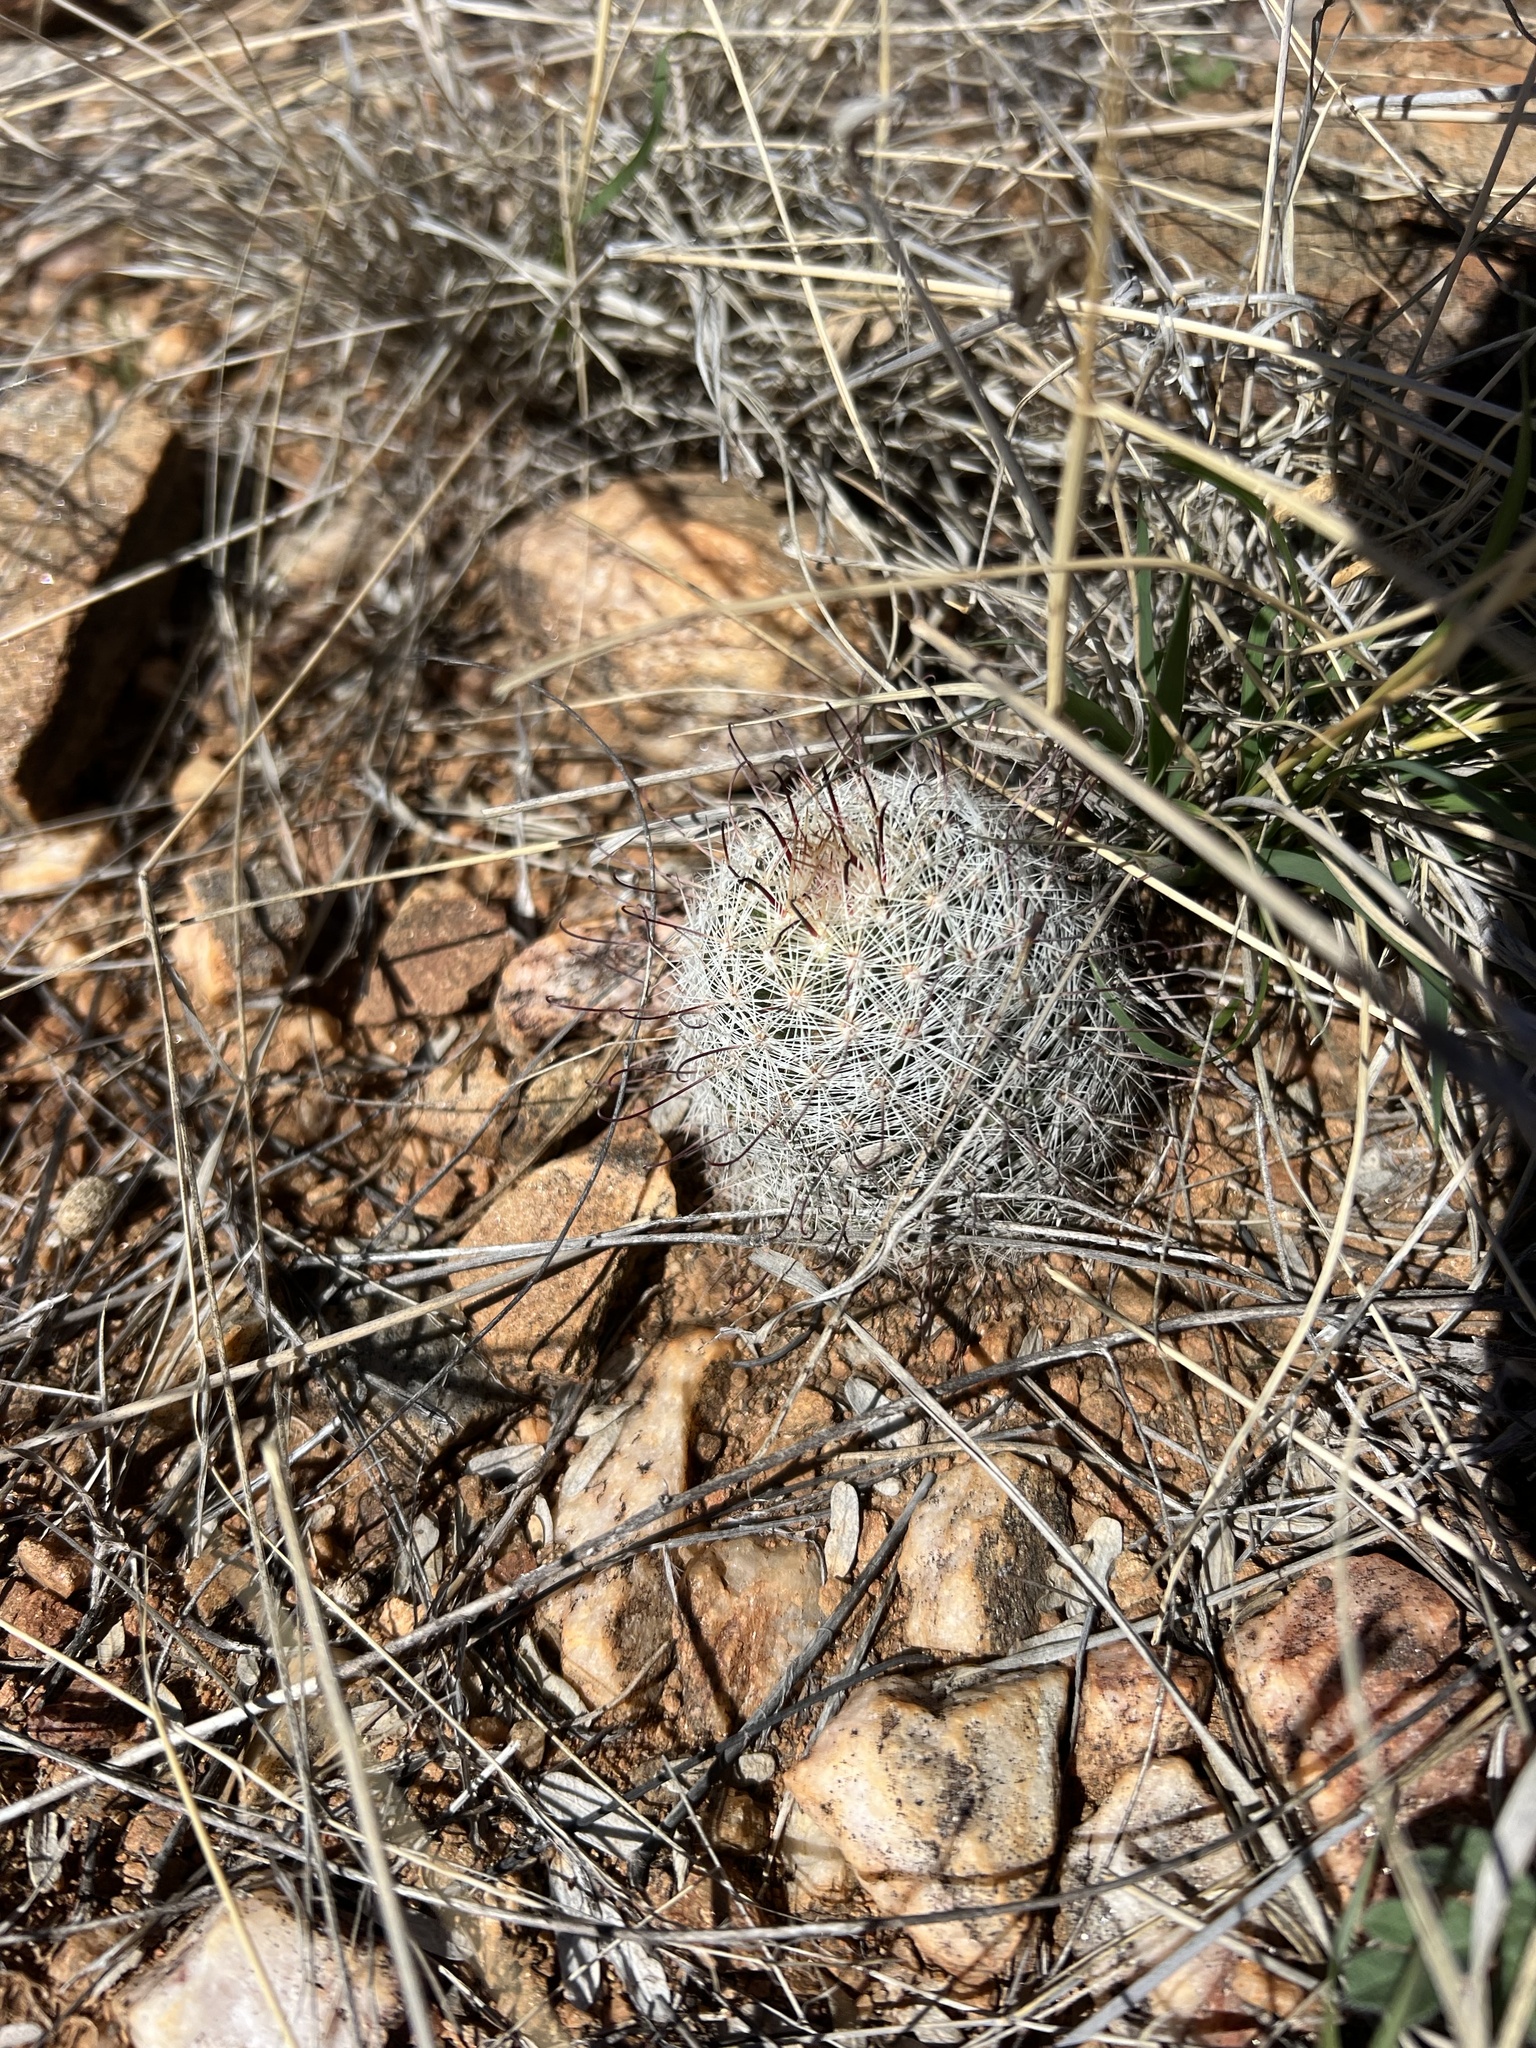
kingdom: Plantae
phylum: Tracheophyta
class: Magnoliopsida
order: Caryophyllales
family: Cactaceae
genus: Cochemiea
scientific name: Cochemiea grahamii
